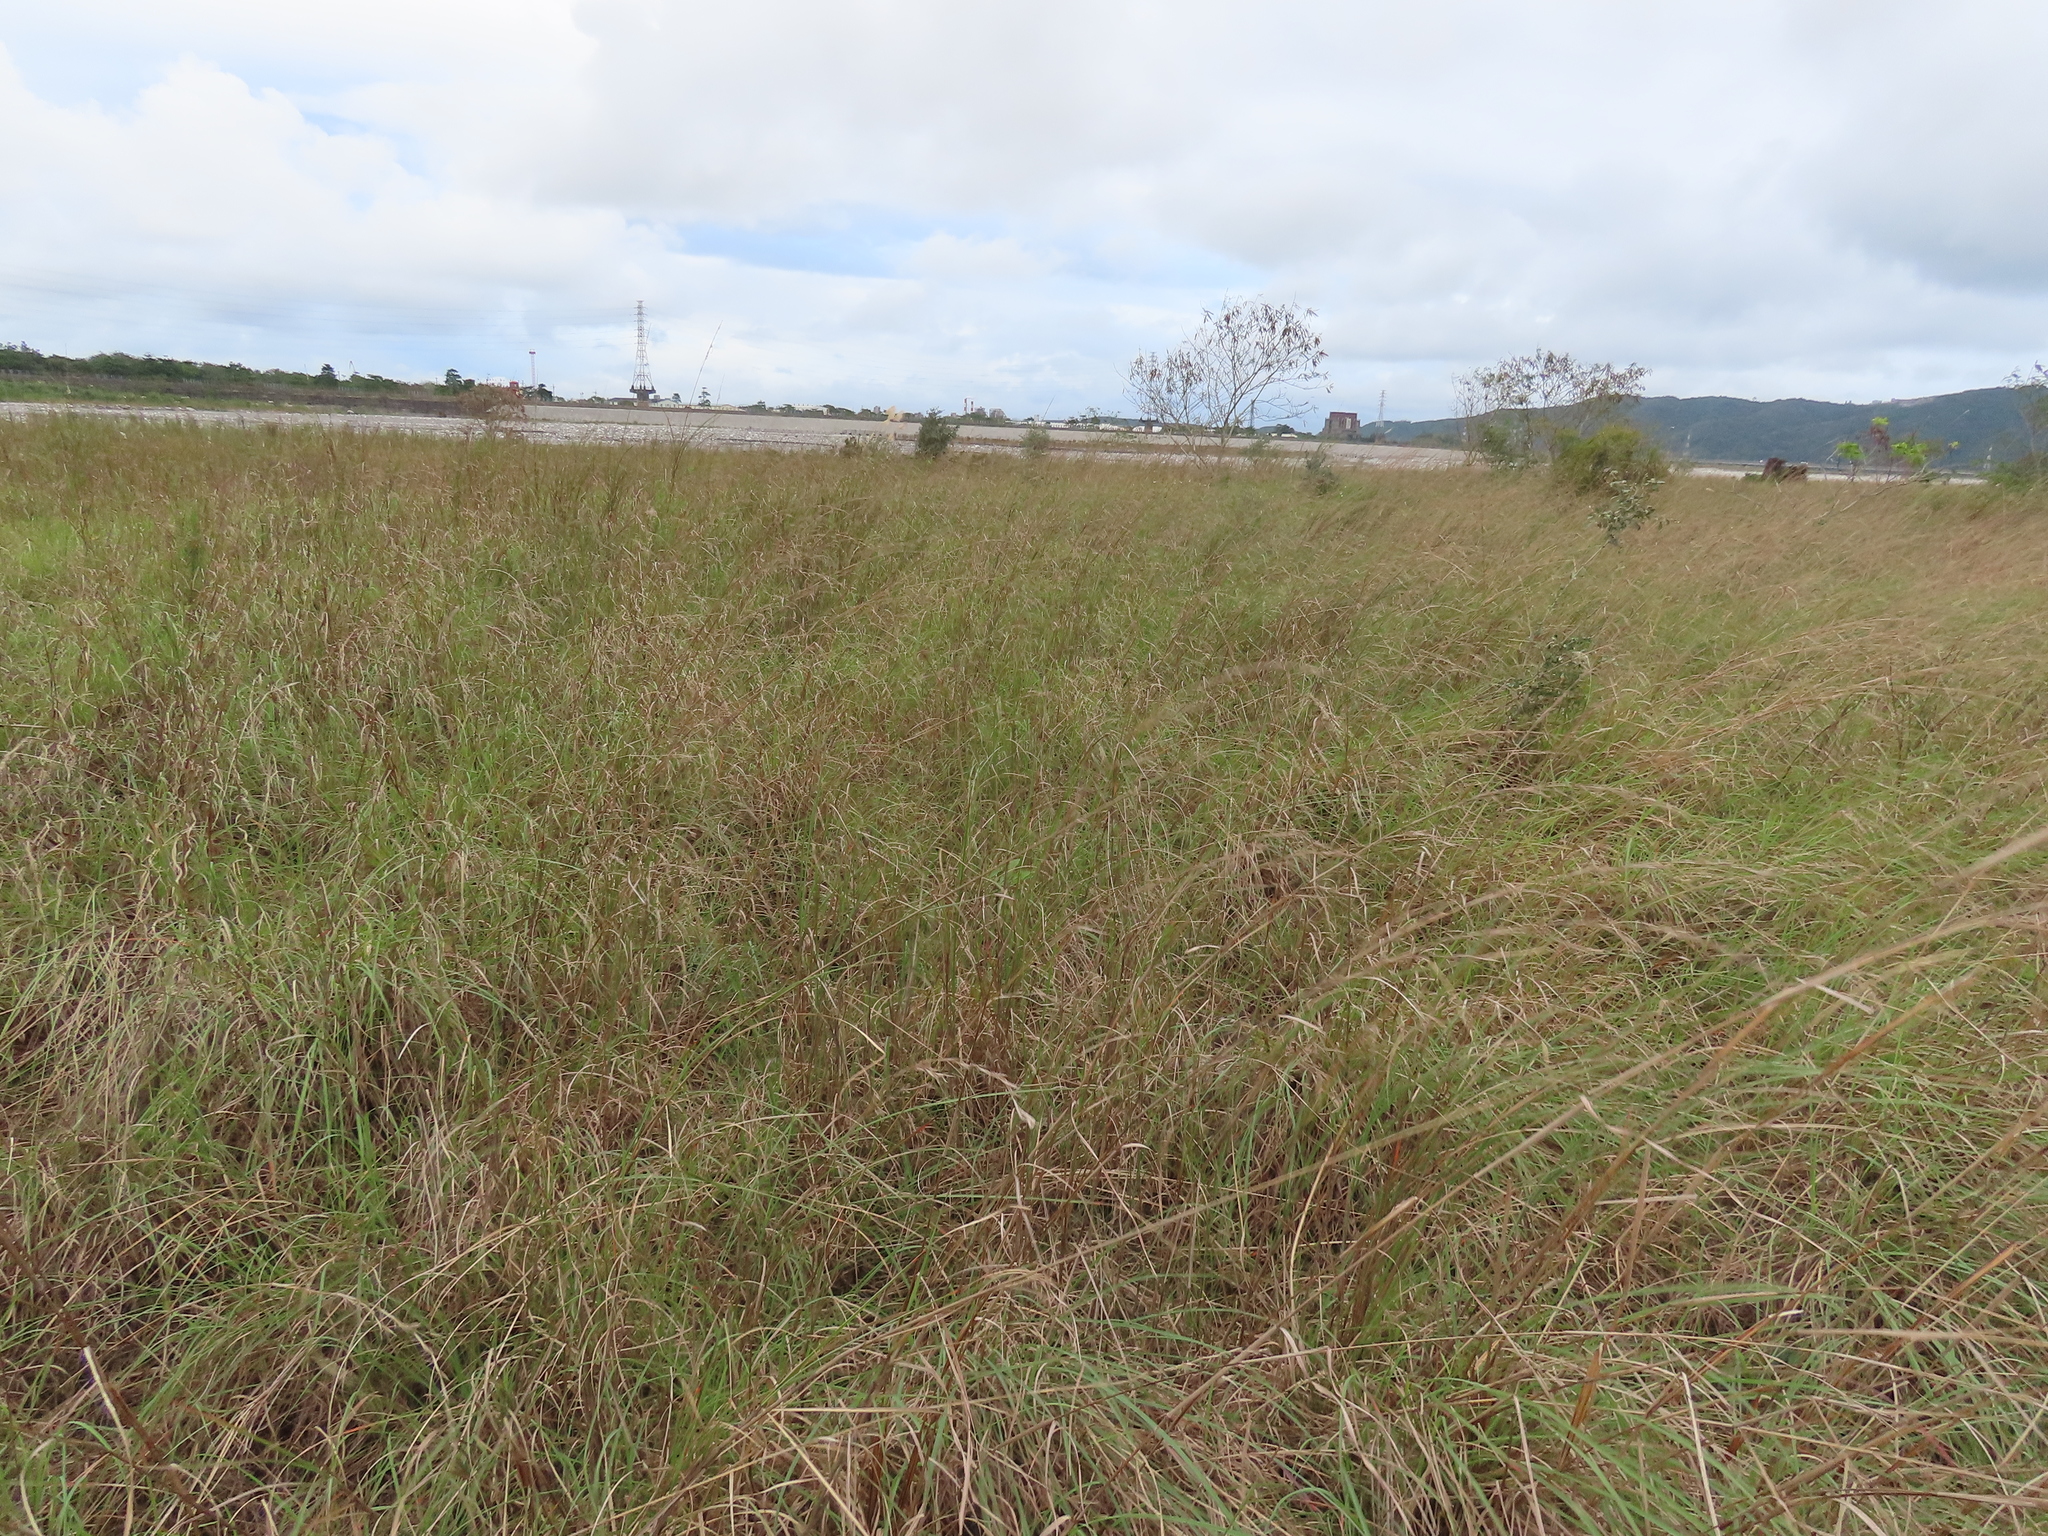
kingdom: Plantae
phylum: Tracheophyta
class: Liliopsida
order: Poales
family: Poaceae
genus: Cymbopogon
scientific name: Cymbopogon tortilis
